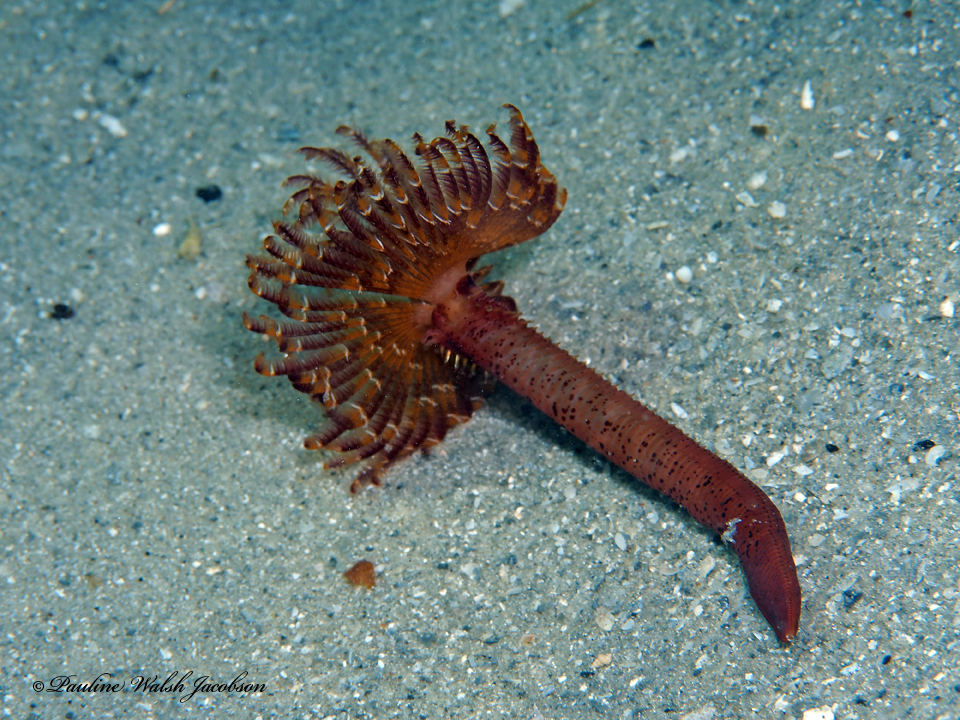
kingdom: Animalia
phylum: Annelida
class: Polychaeta
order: Sabellida
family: Sabellidae
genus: Branchiomma
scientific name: Branchiomma nigromaculatum
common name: Black-spotted feather duster
